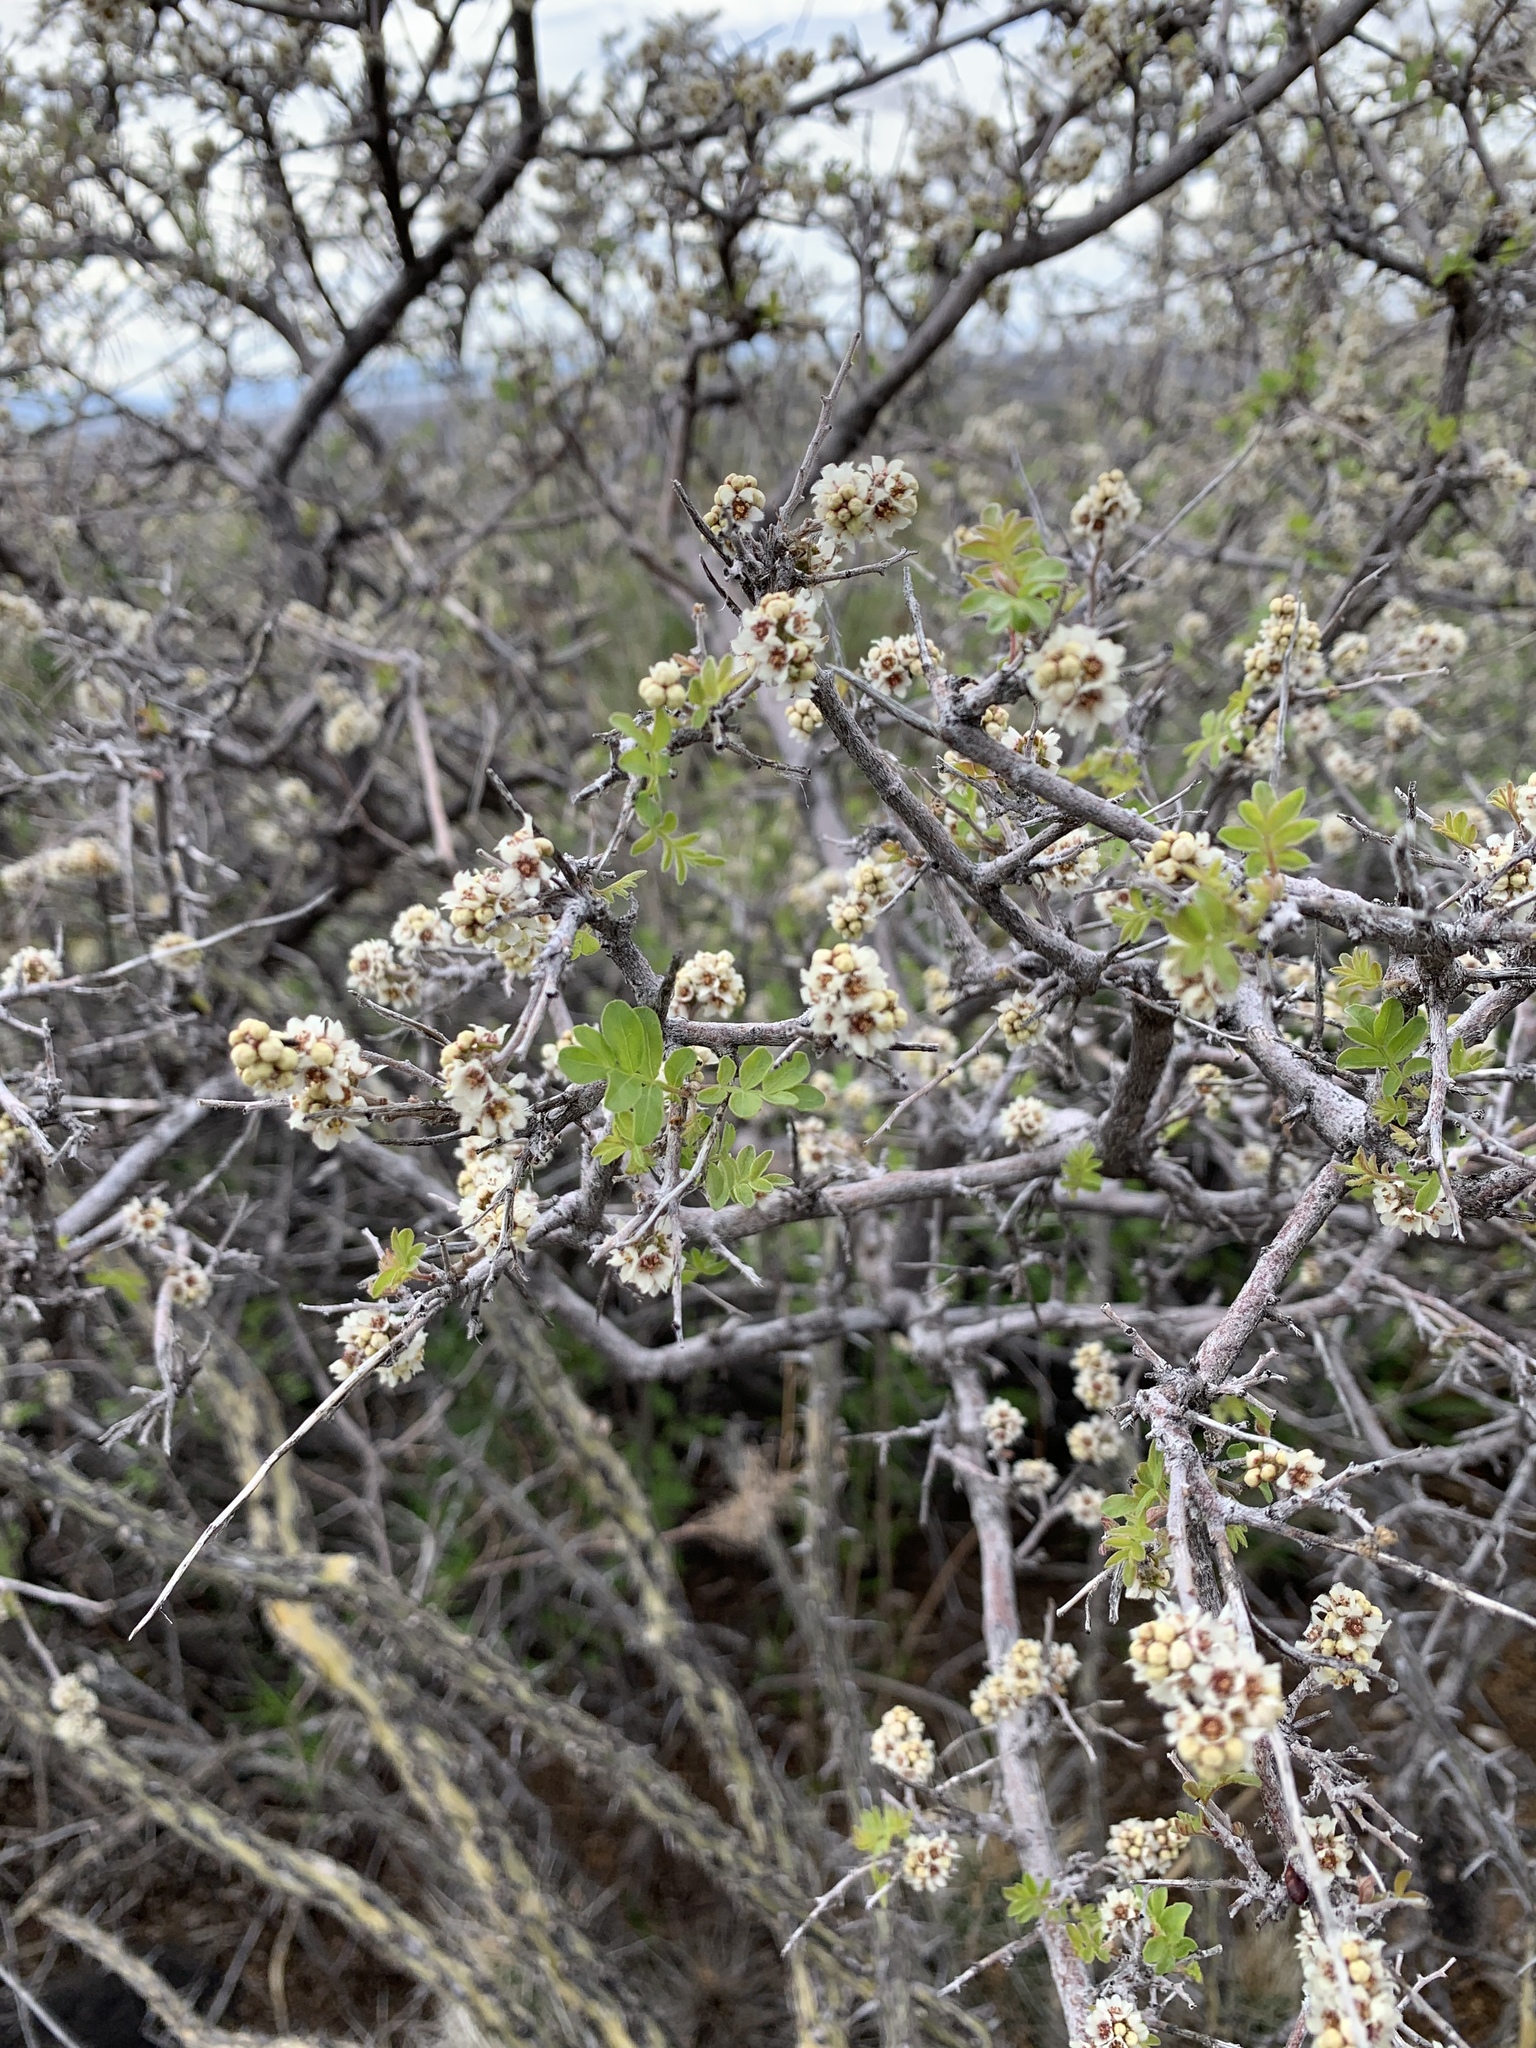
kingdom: Plantae
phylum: Tracheophyta
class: Magnoliopsida
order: Sapindales
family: Anacardiaceae
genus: Rhus
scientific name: Rhus microphylla
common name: Desert sumac
